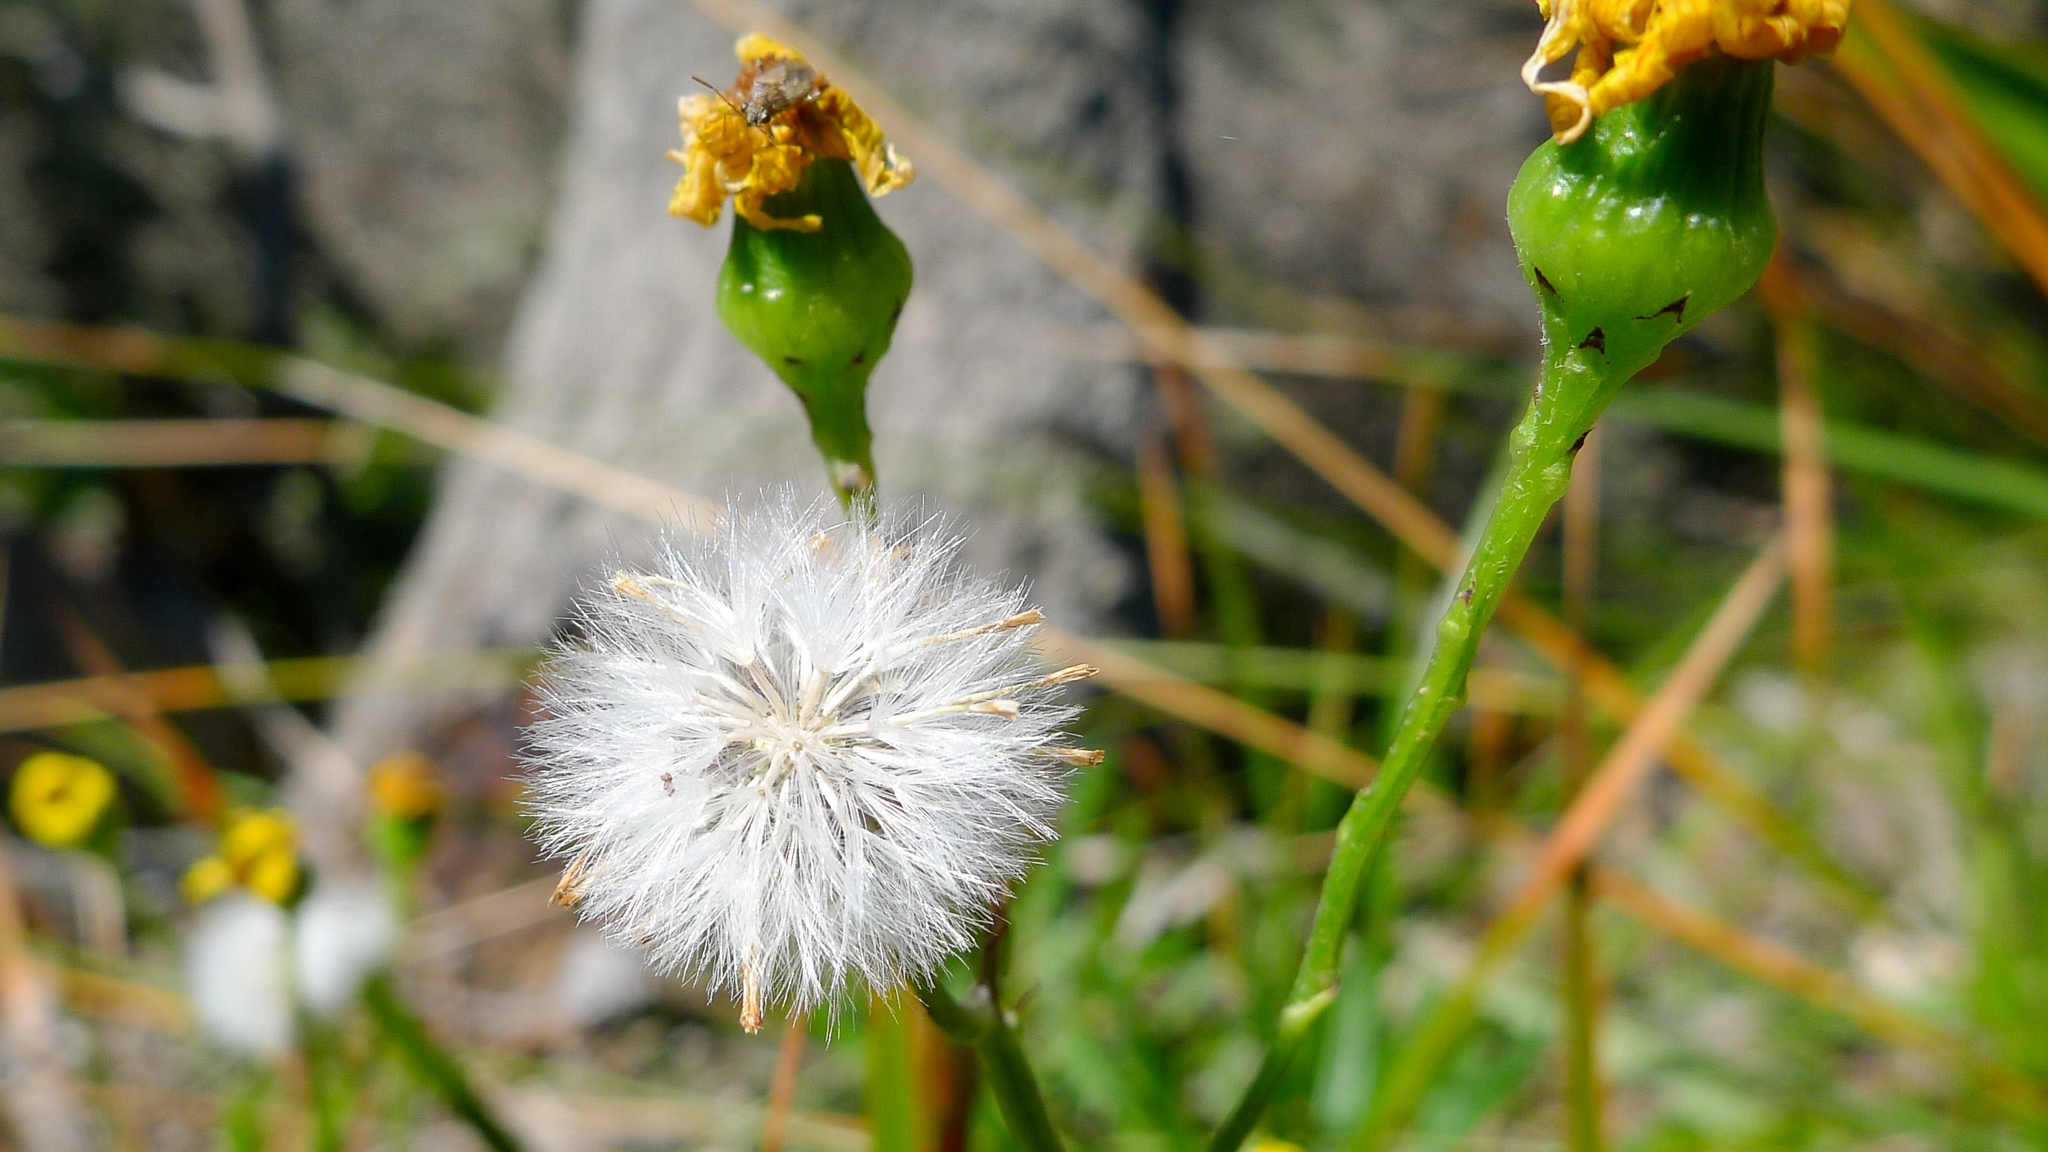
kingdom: Plantae
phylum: Tracheophyta
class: Magnoliopsida
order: Asterales
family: Asteraceae
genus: Senecio
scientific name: Senecio pinnatifolius
